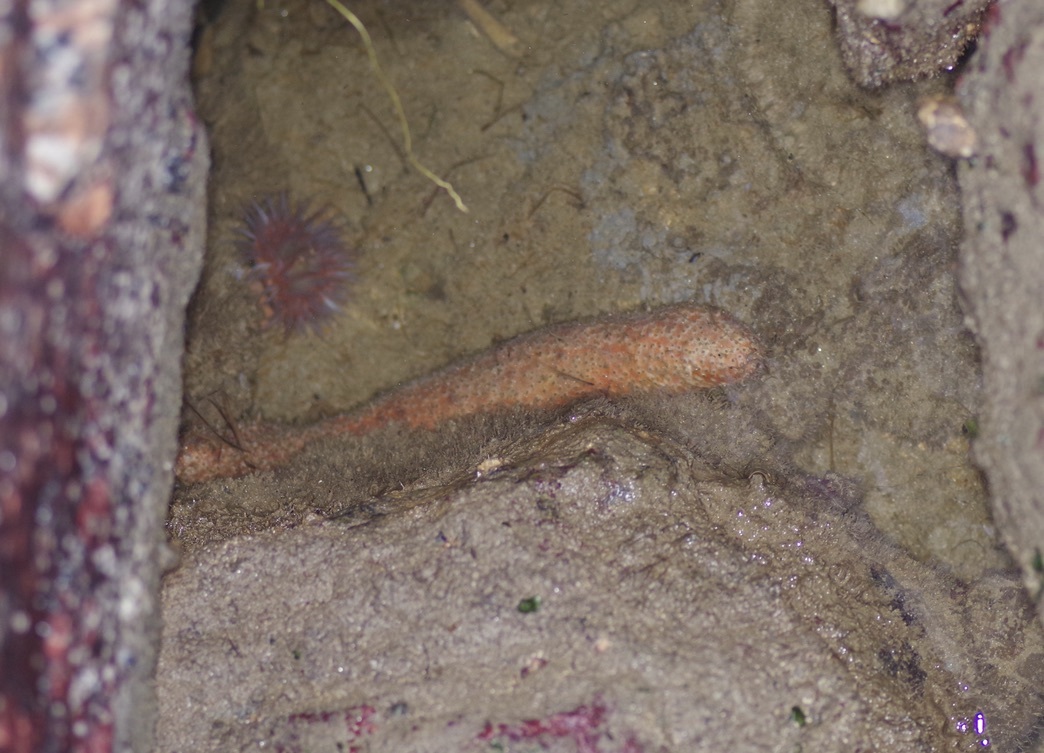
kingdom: Animalia
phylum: Echinodermata
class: Holothuroidea
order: Holothuriida
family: Holothuriidae
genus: Holothuria
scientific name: Holothuria grisea
